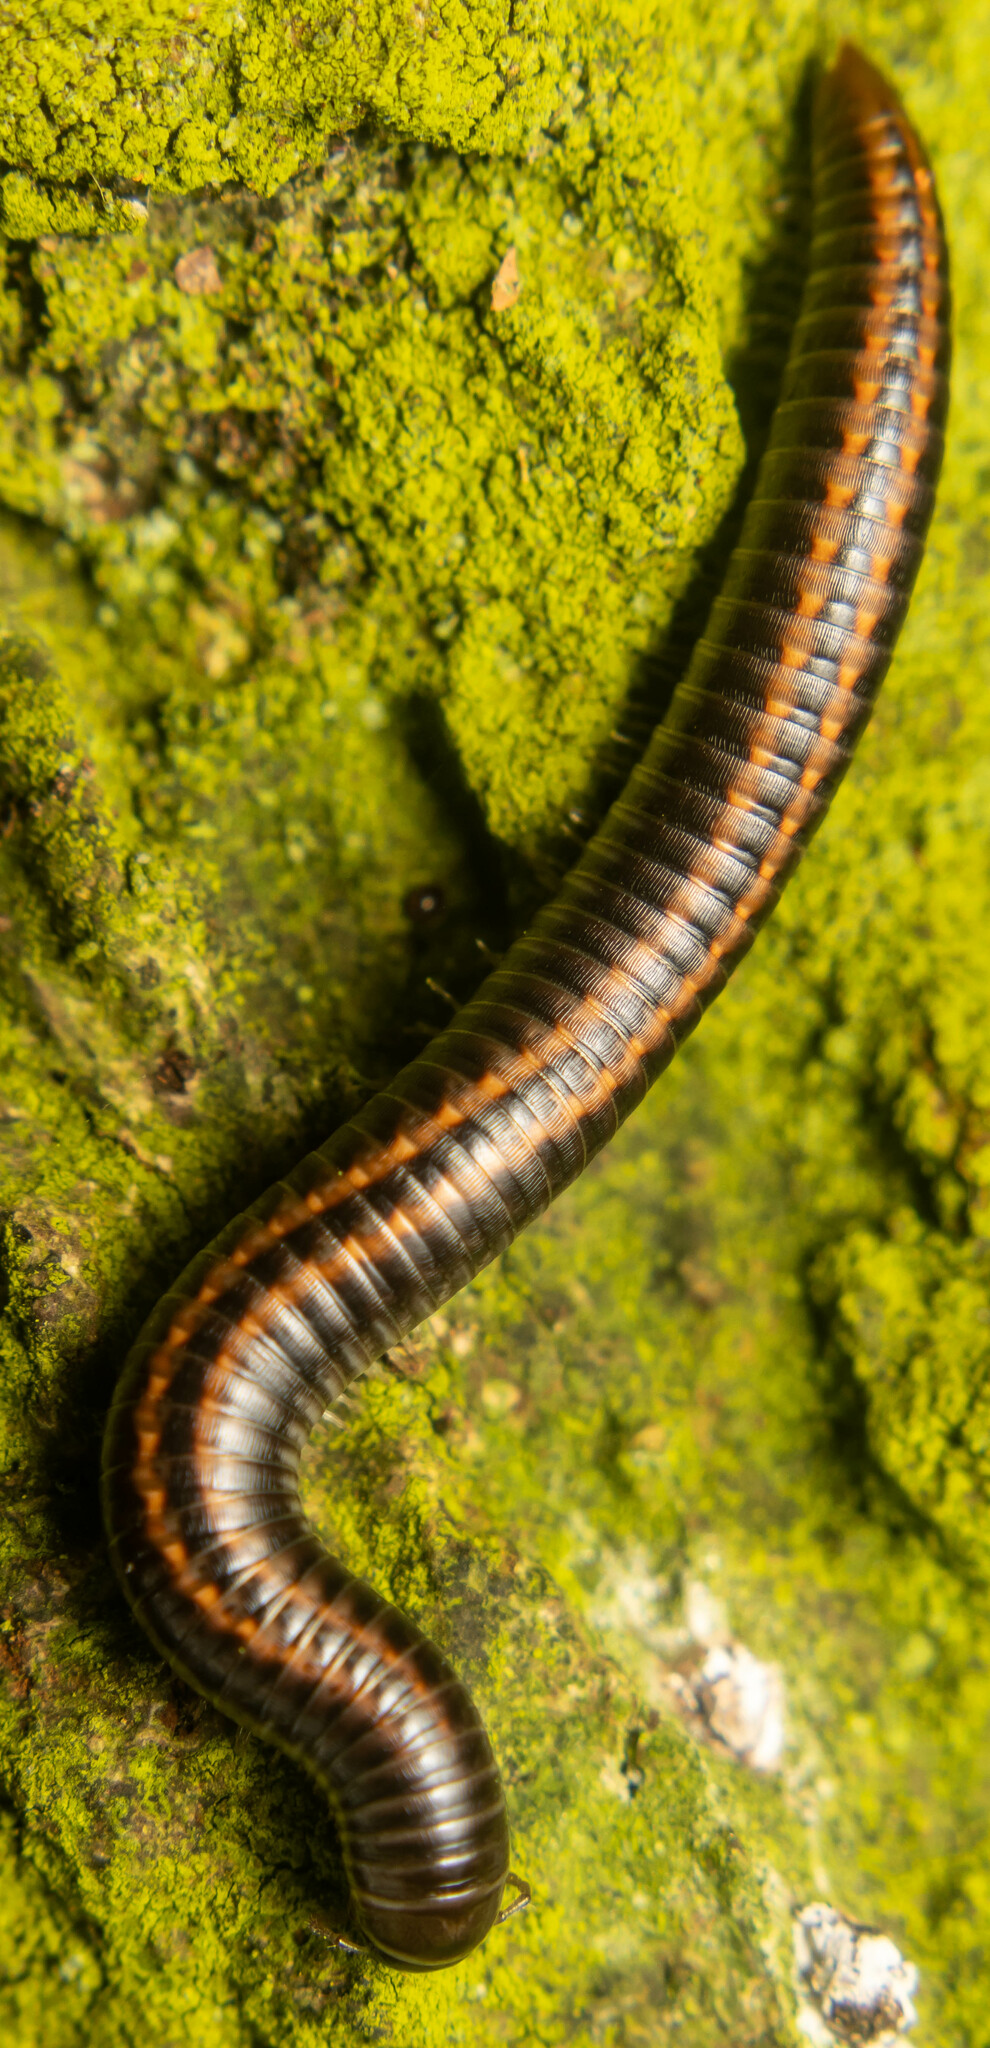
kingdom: Animalia
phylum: Arthropoda
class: Diplopoda
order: Julida
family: Julidae
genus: Ommatoiulus
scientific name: Ommatoiulus sabulosus
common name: Striped millipede
